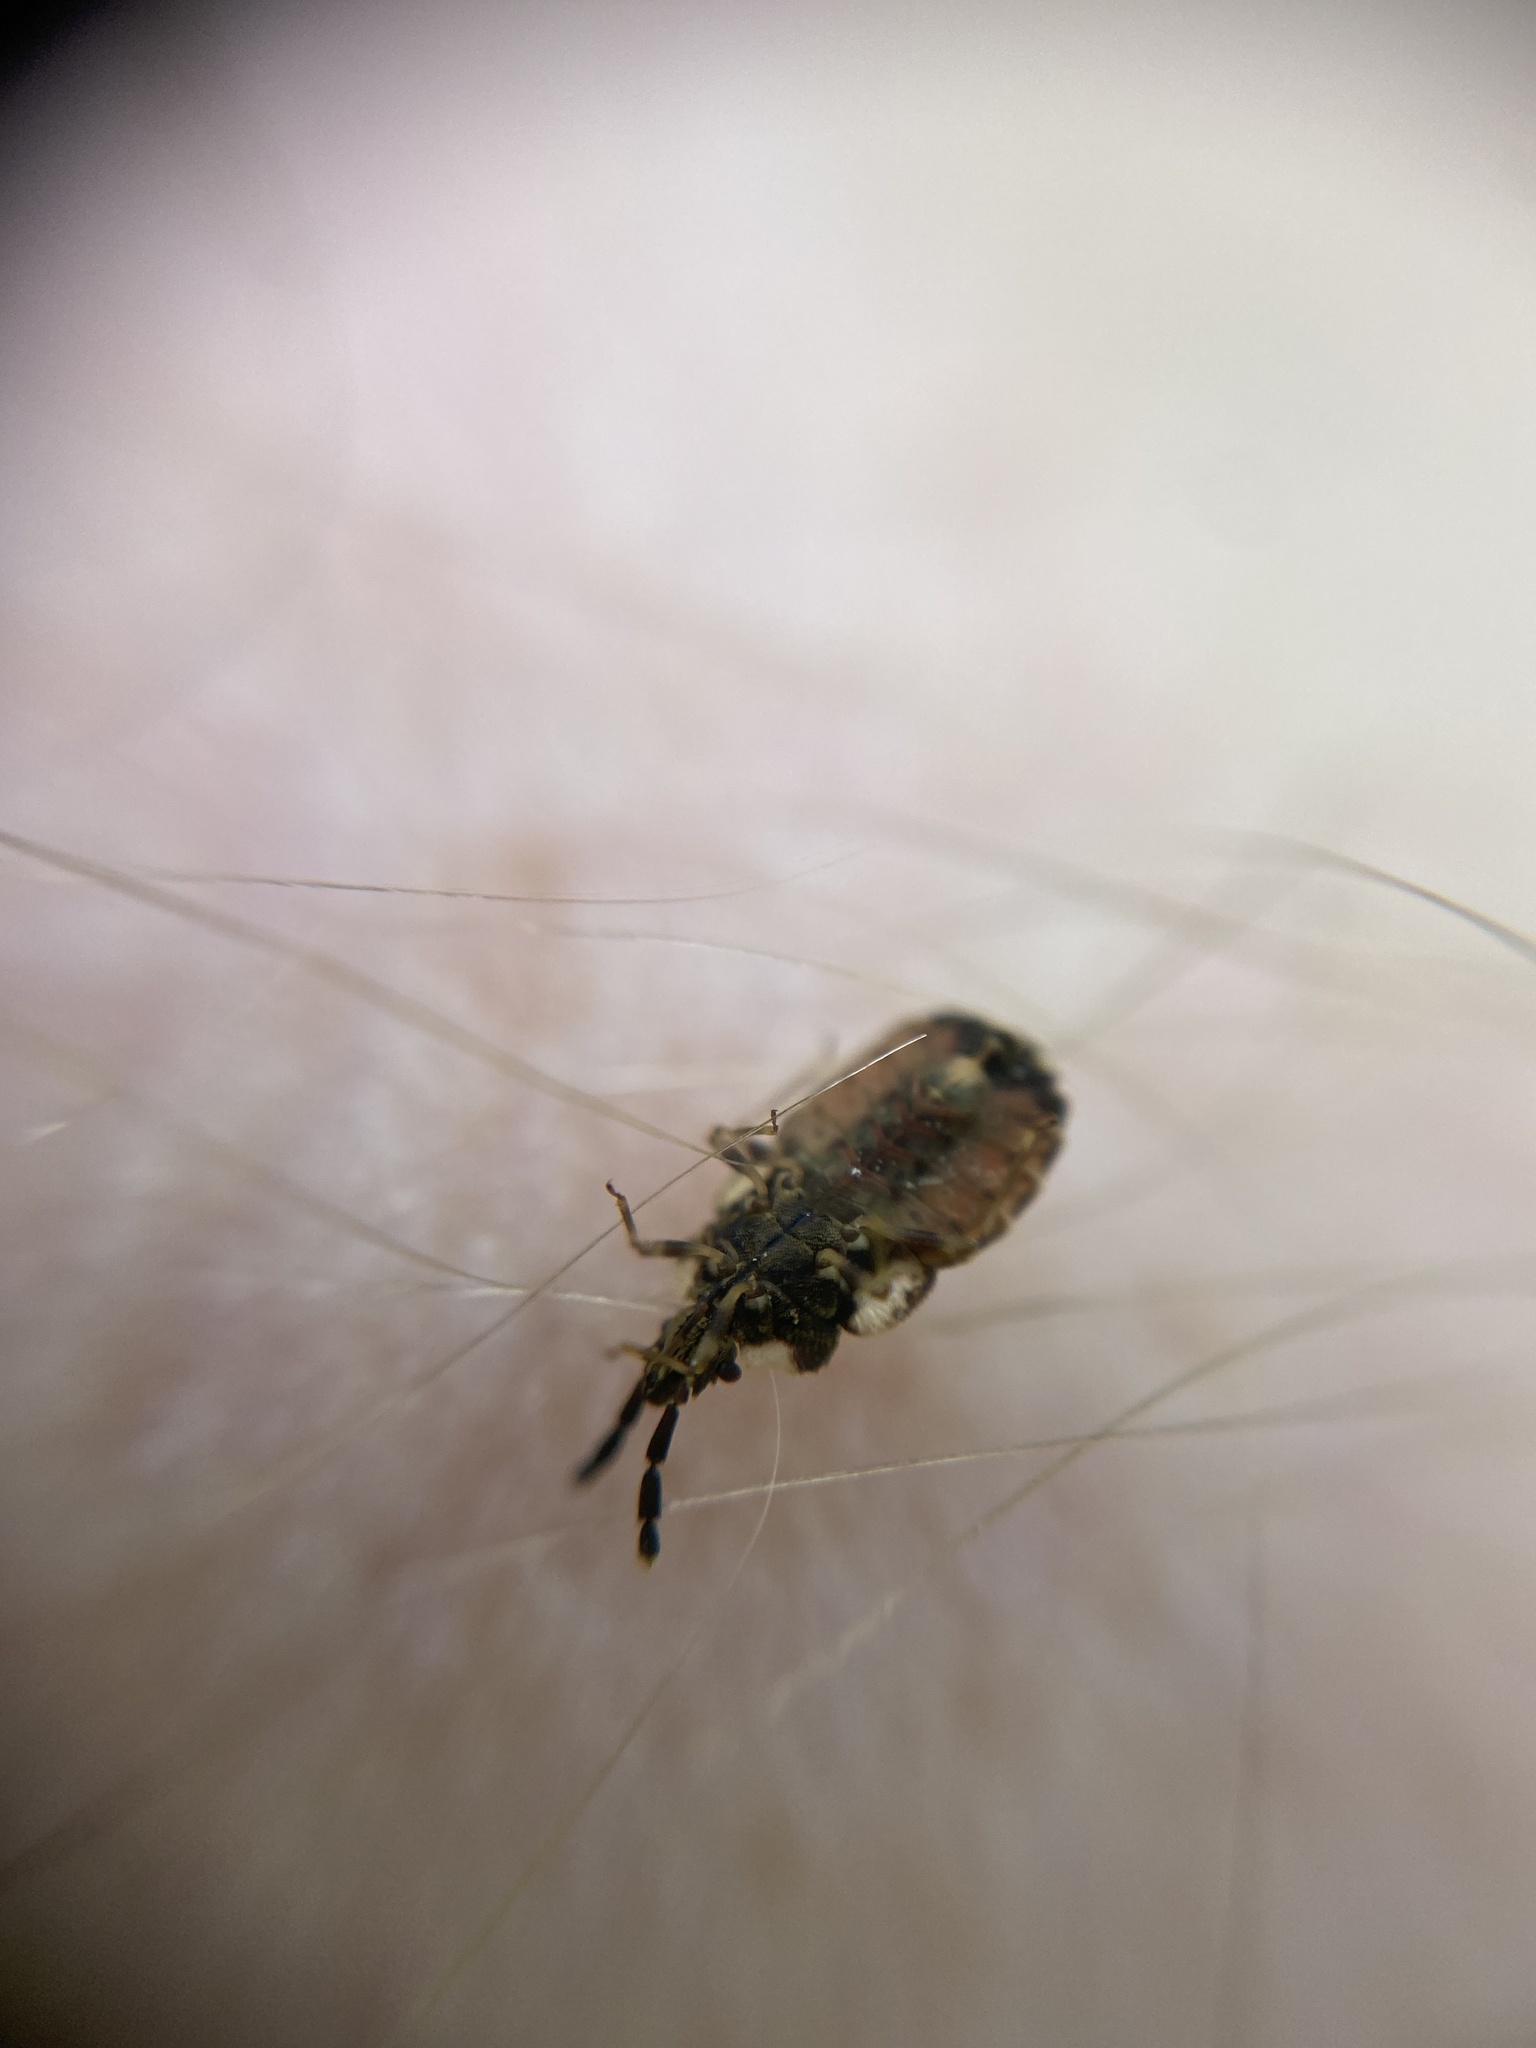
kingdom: Animalia
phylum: Arthropoda
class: Insecta
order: Hemiptera
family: Aradidae
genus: Aradus
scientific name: Aradus depressus
